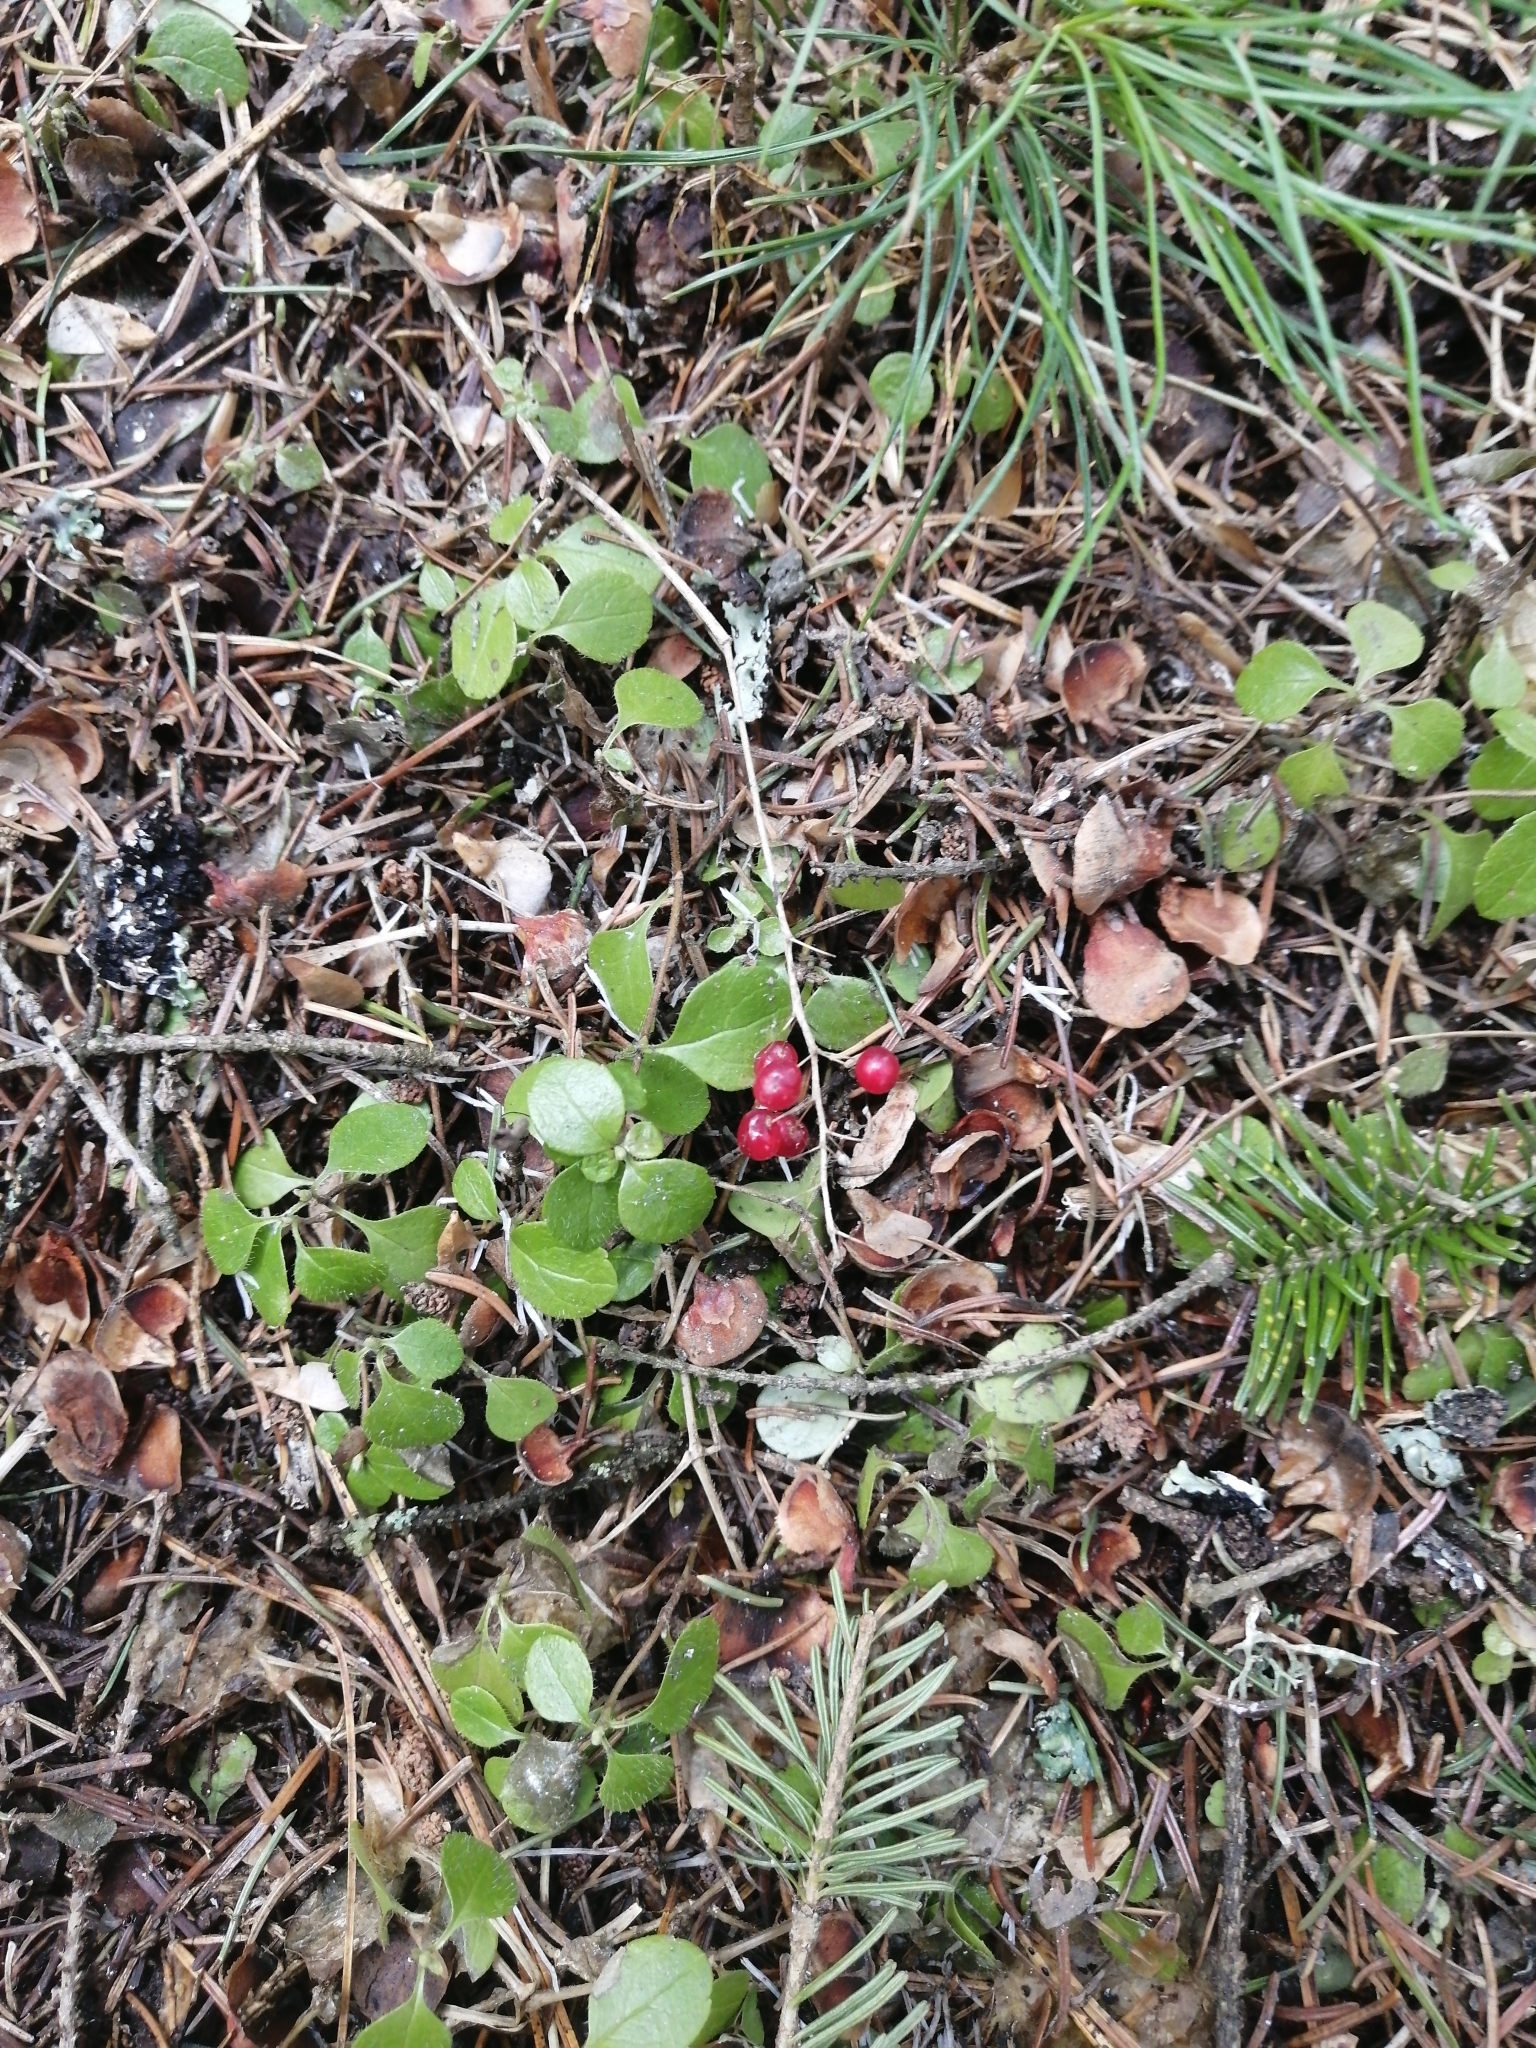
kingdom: Plantae
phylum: Tracheophyta
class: Liliopsida
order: Asparagales
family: Asparagaceae
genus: Maianthemum
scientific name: Maianthemum bifolium
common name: May lily
